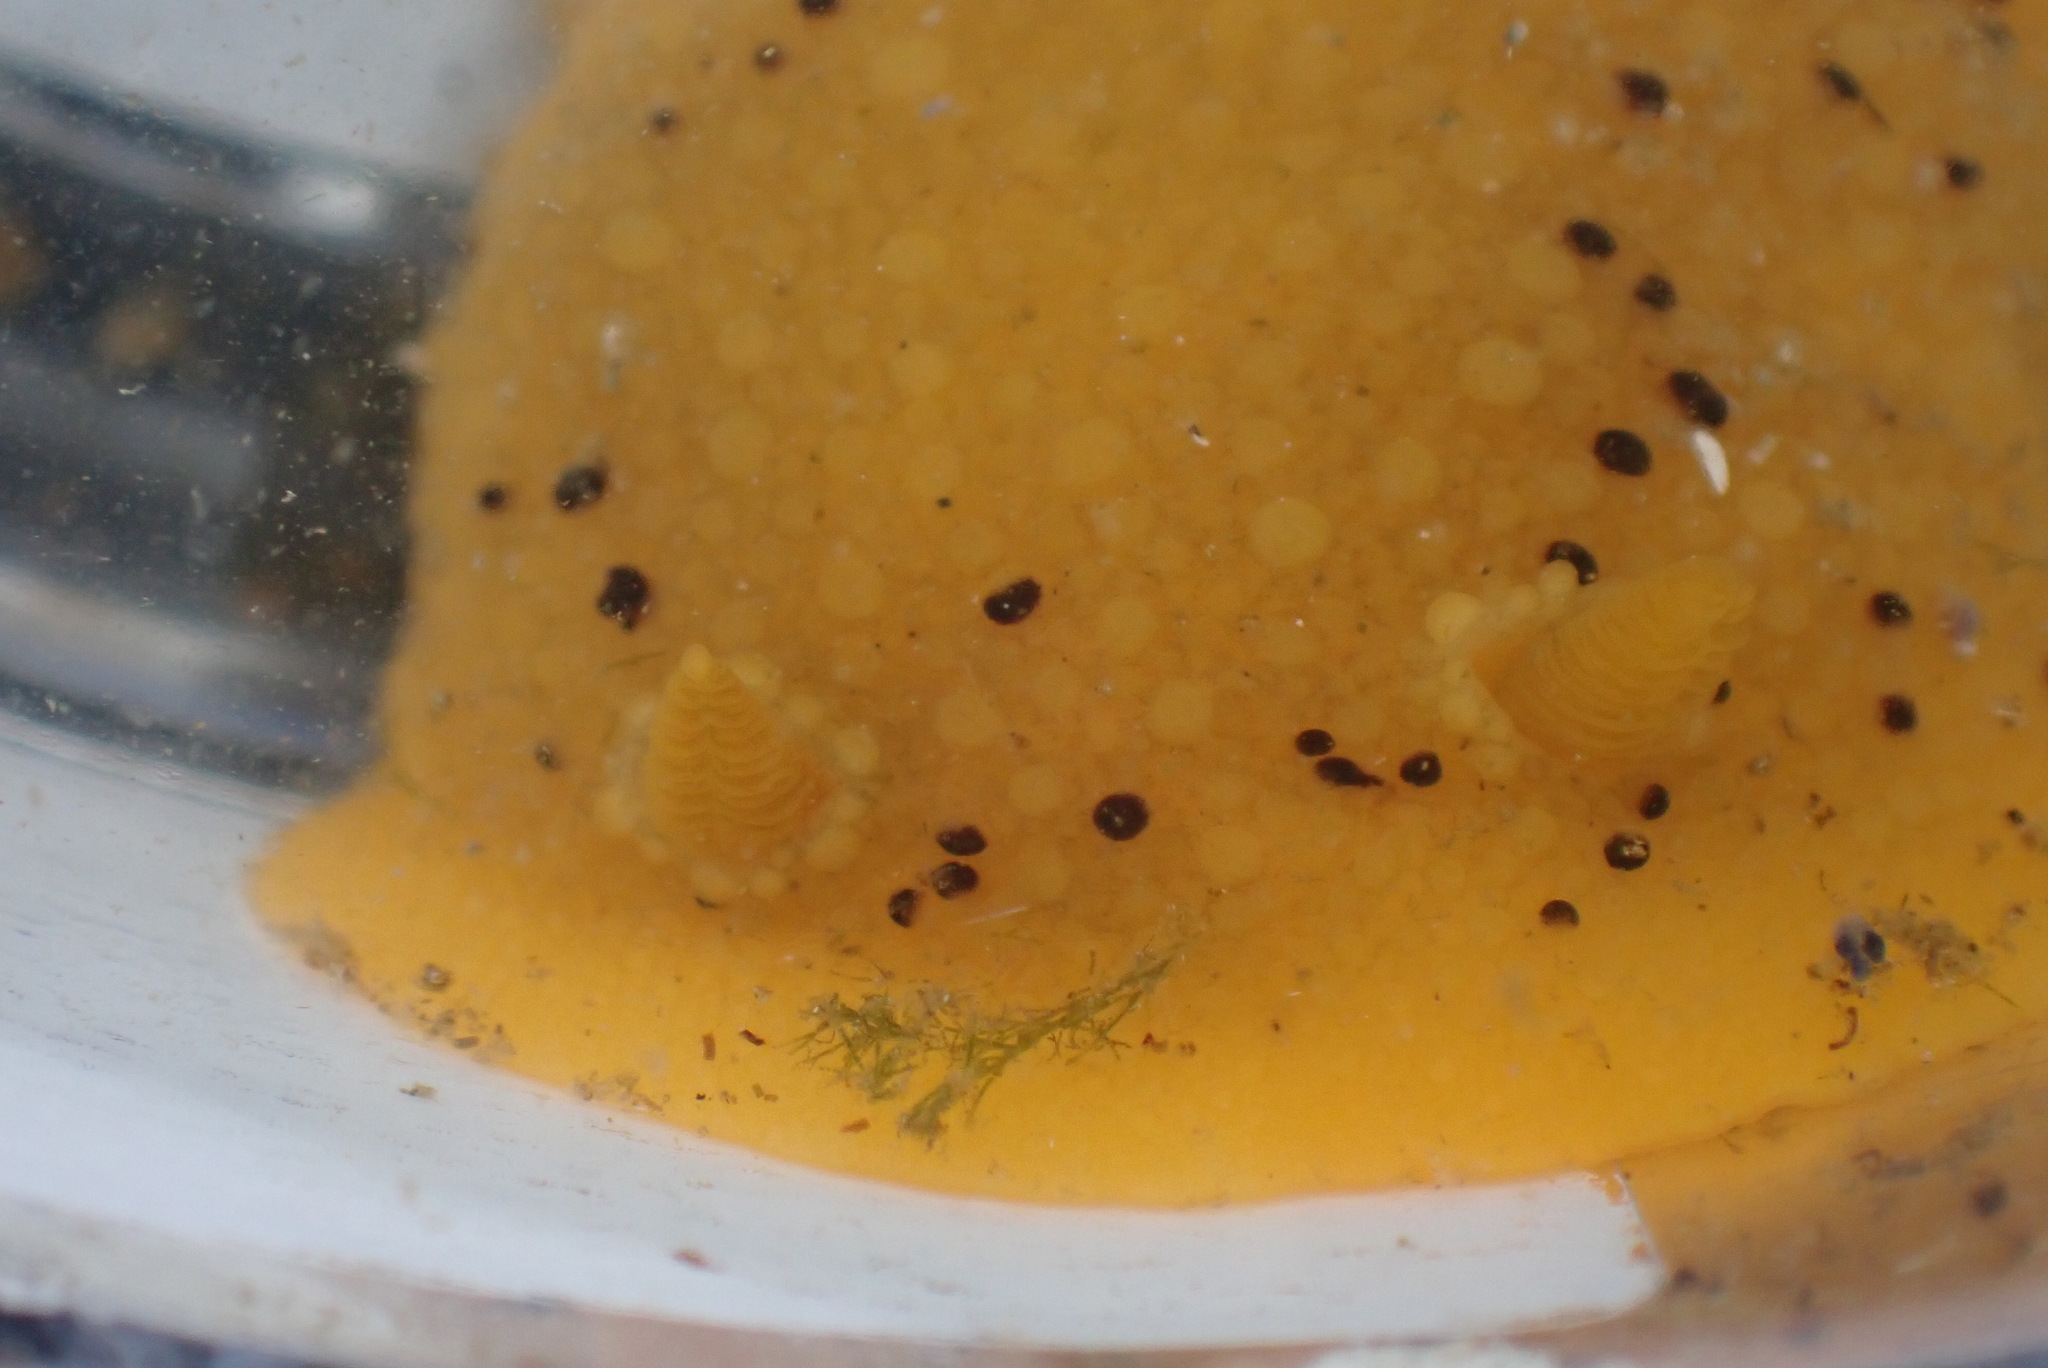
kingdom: Animalia
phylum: Mollusca
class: Gastropoda
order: Nudibranchia
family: Dorididae
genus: Doris
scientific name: Doris montereyensis
